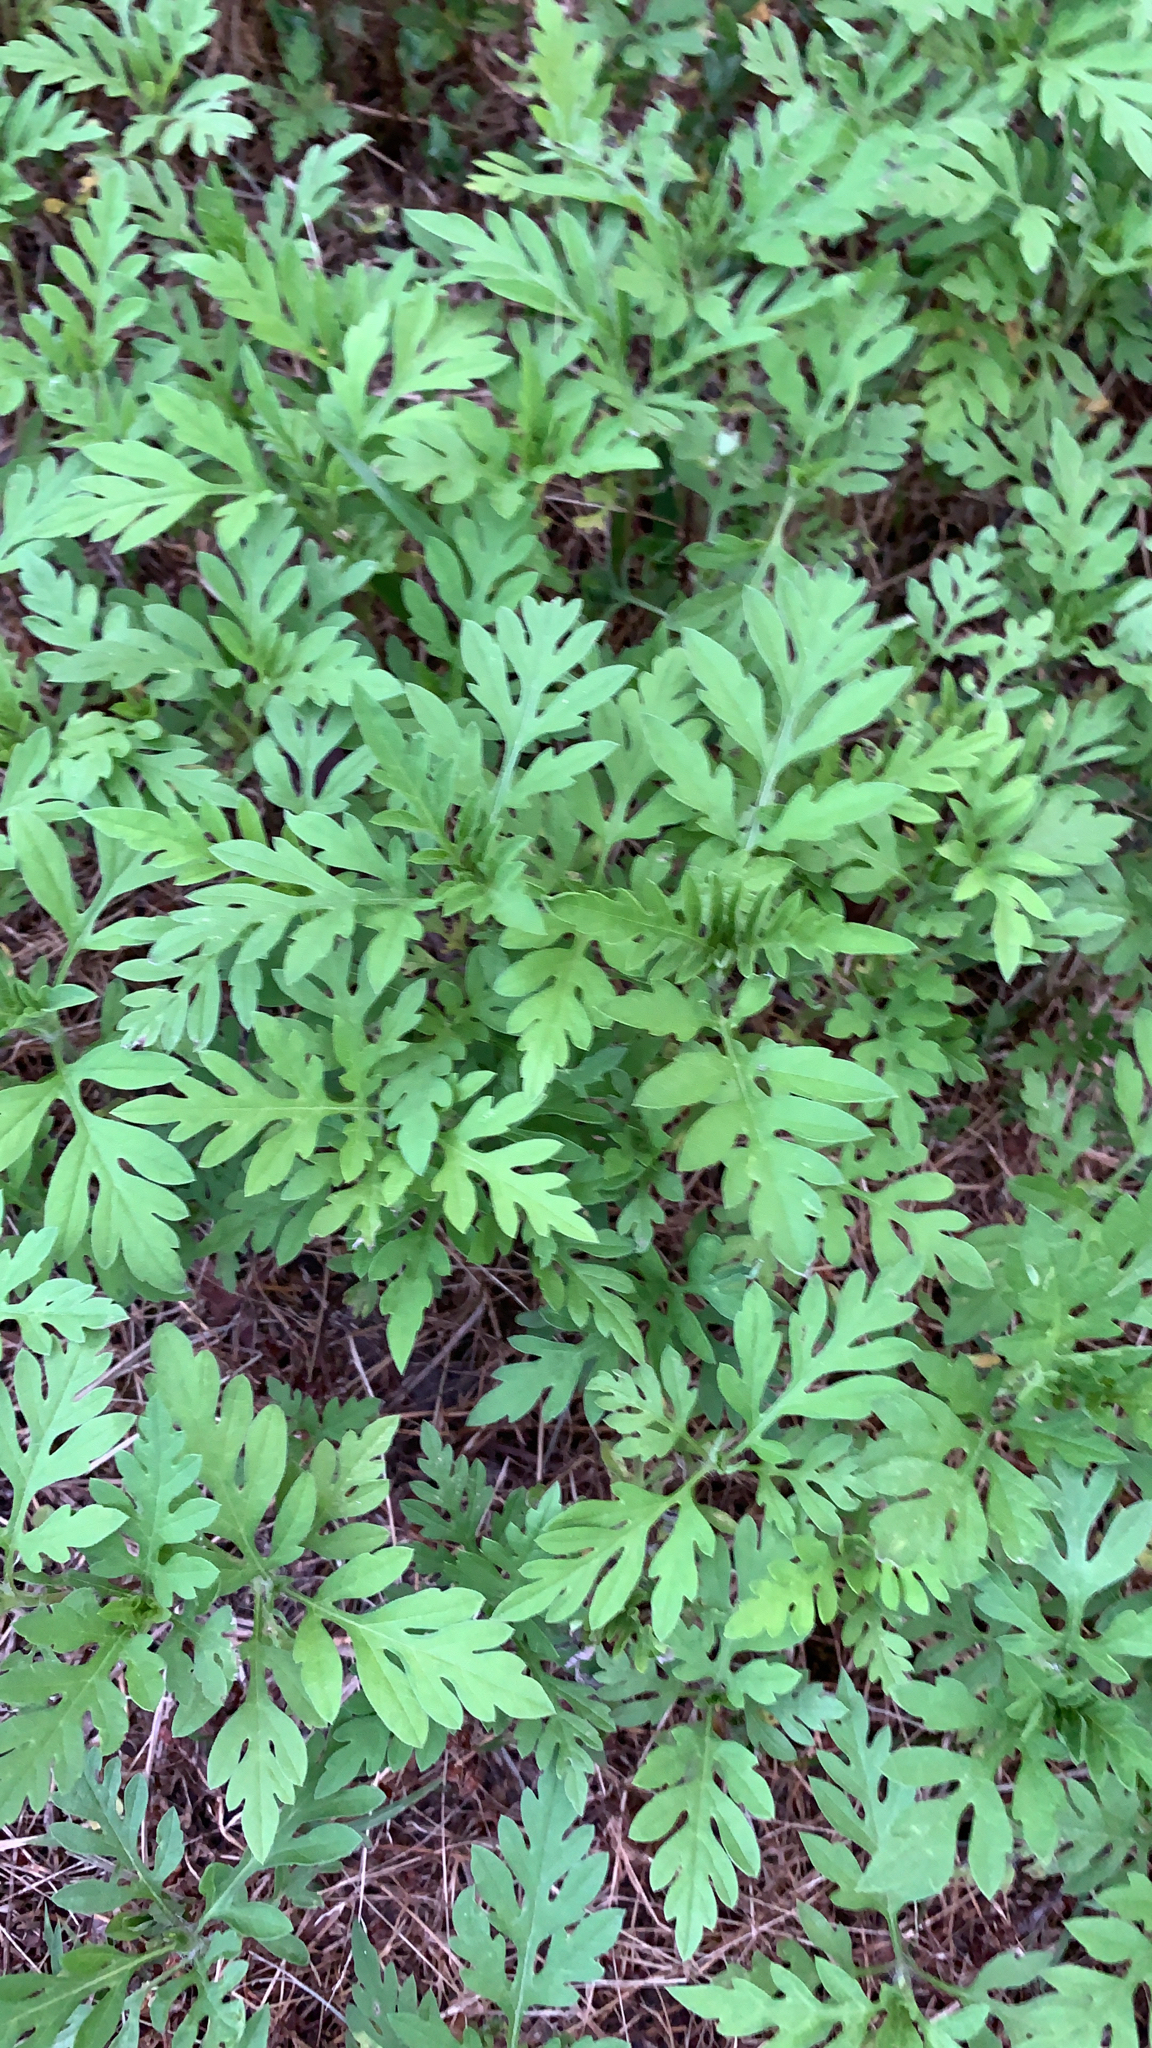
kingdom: Plantae
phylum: Tracheophyta
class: Magnoliopsida
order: Asterales
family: Asteraceae
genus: Ambrosia
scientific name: Ambrosia artemisiifolia
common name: Annual ragweed
